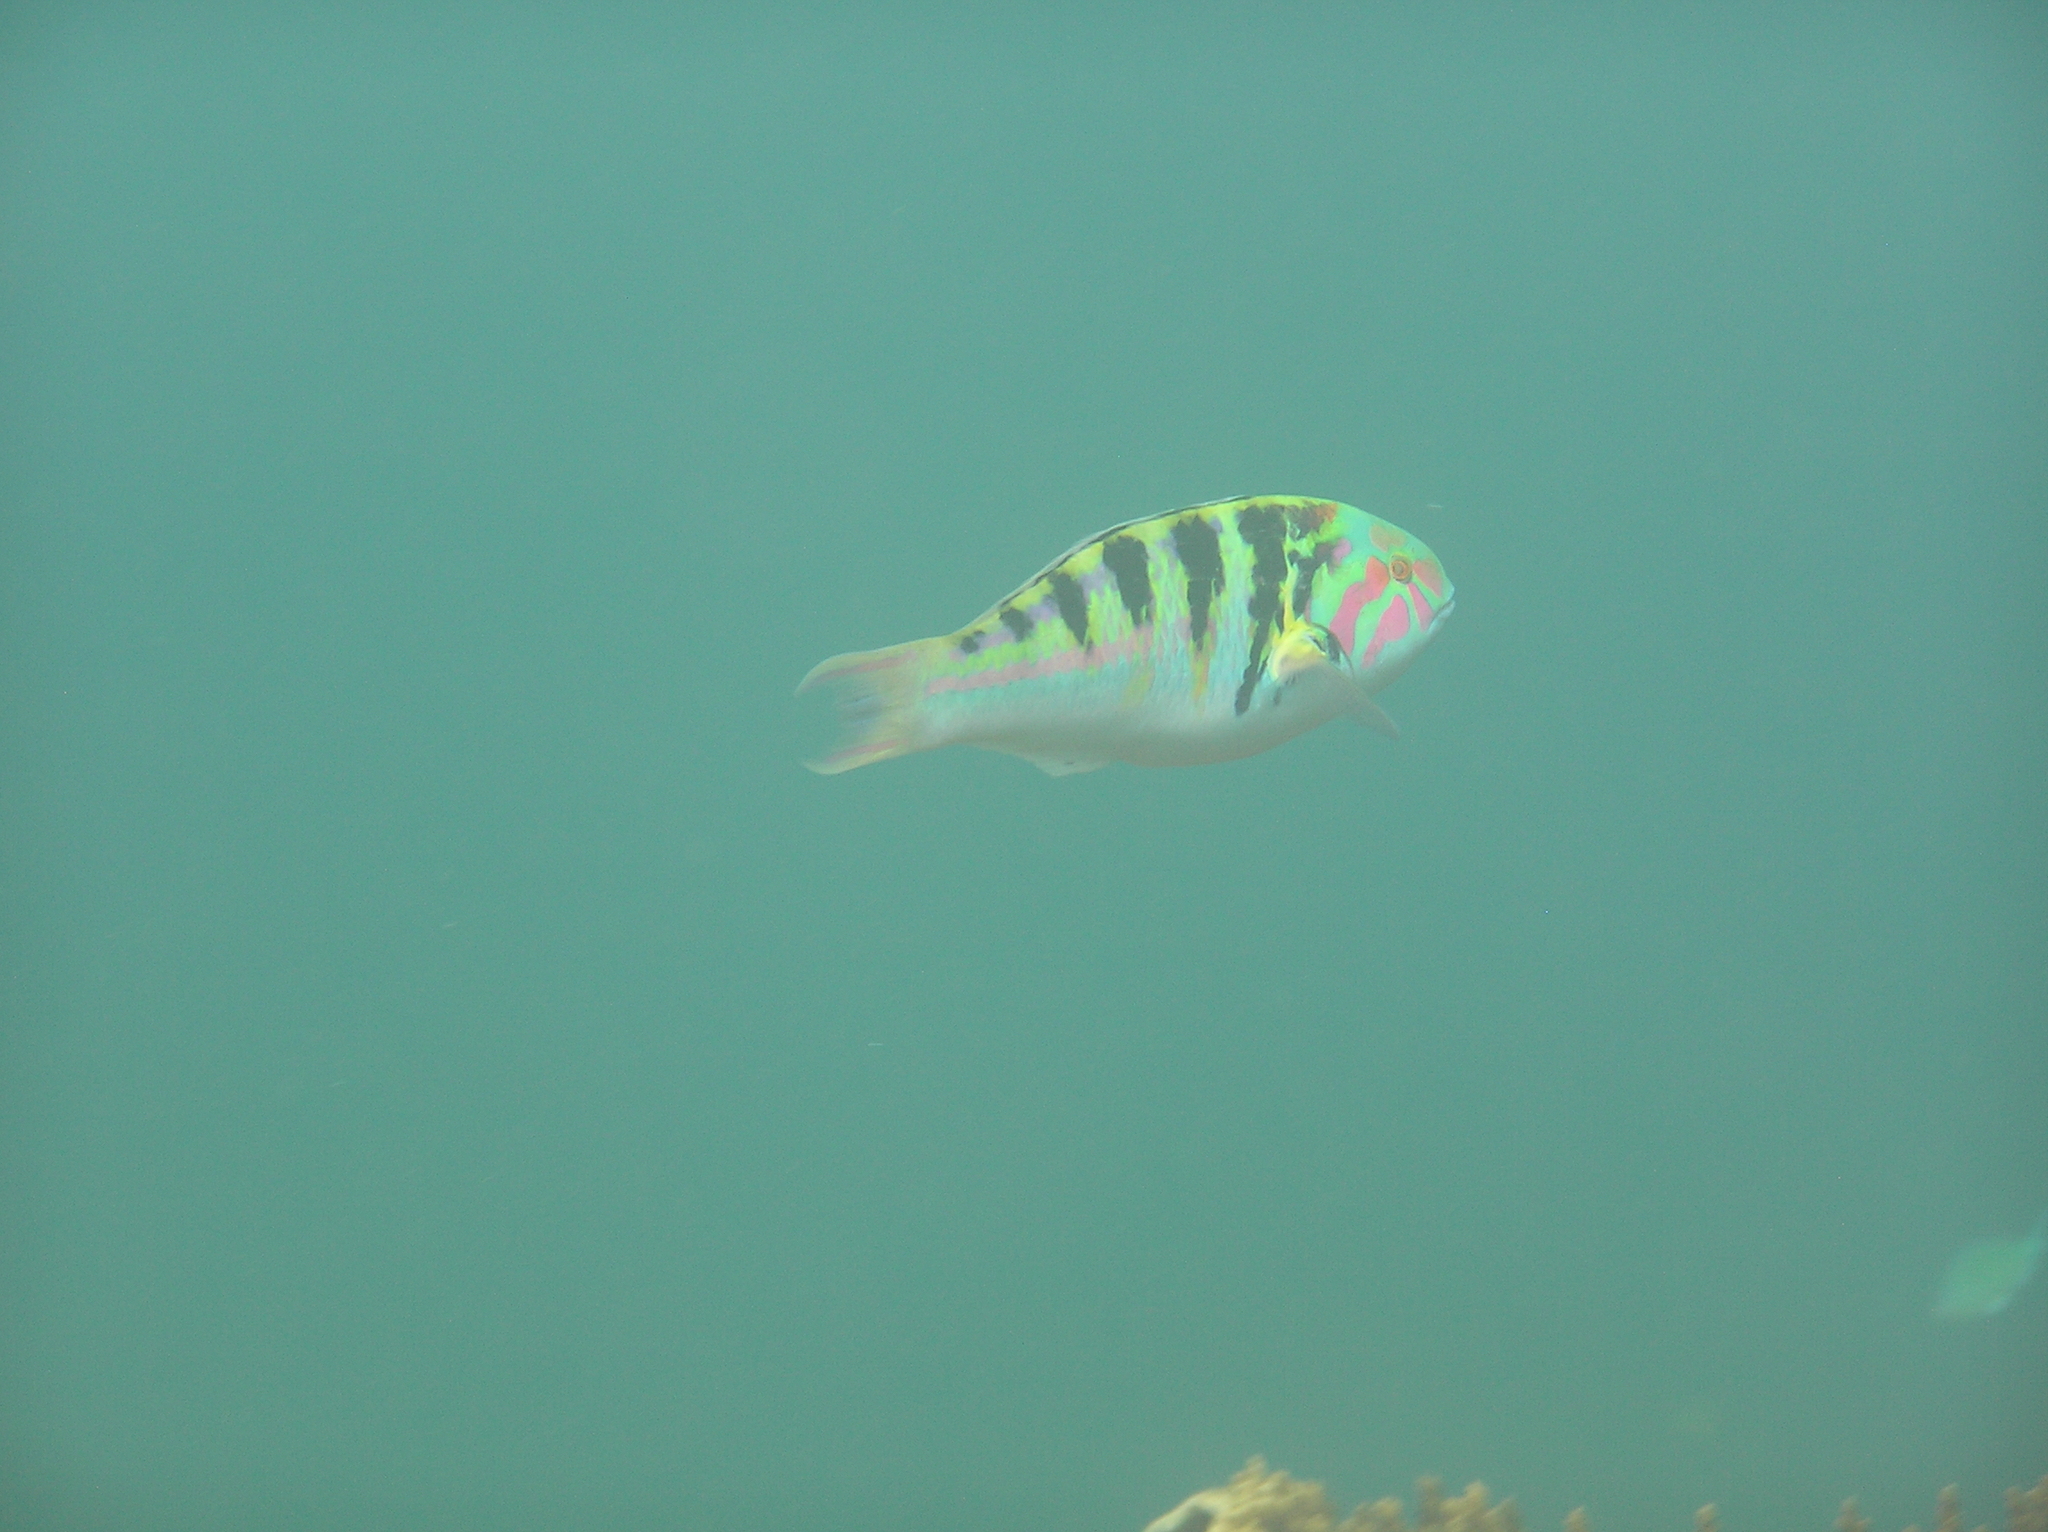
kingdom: Animalia
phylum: Chordata
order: Perciformes
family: Labridae
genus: Thalassoma
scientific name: Thalassoma hardwicke
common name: Sixbar wrasse
